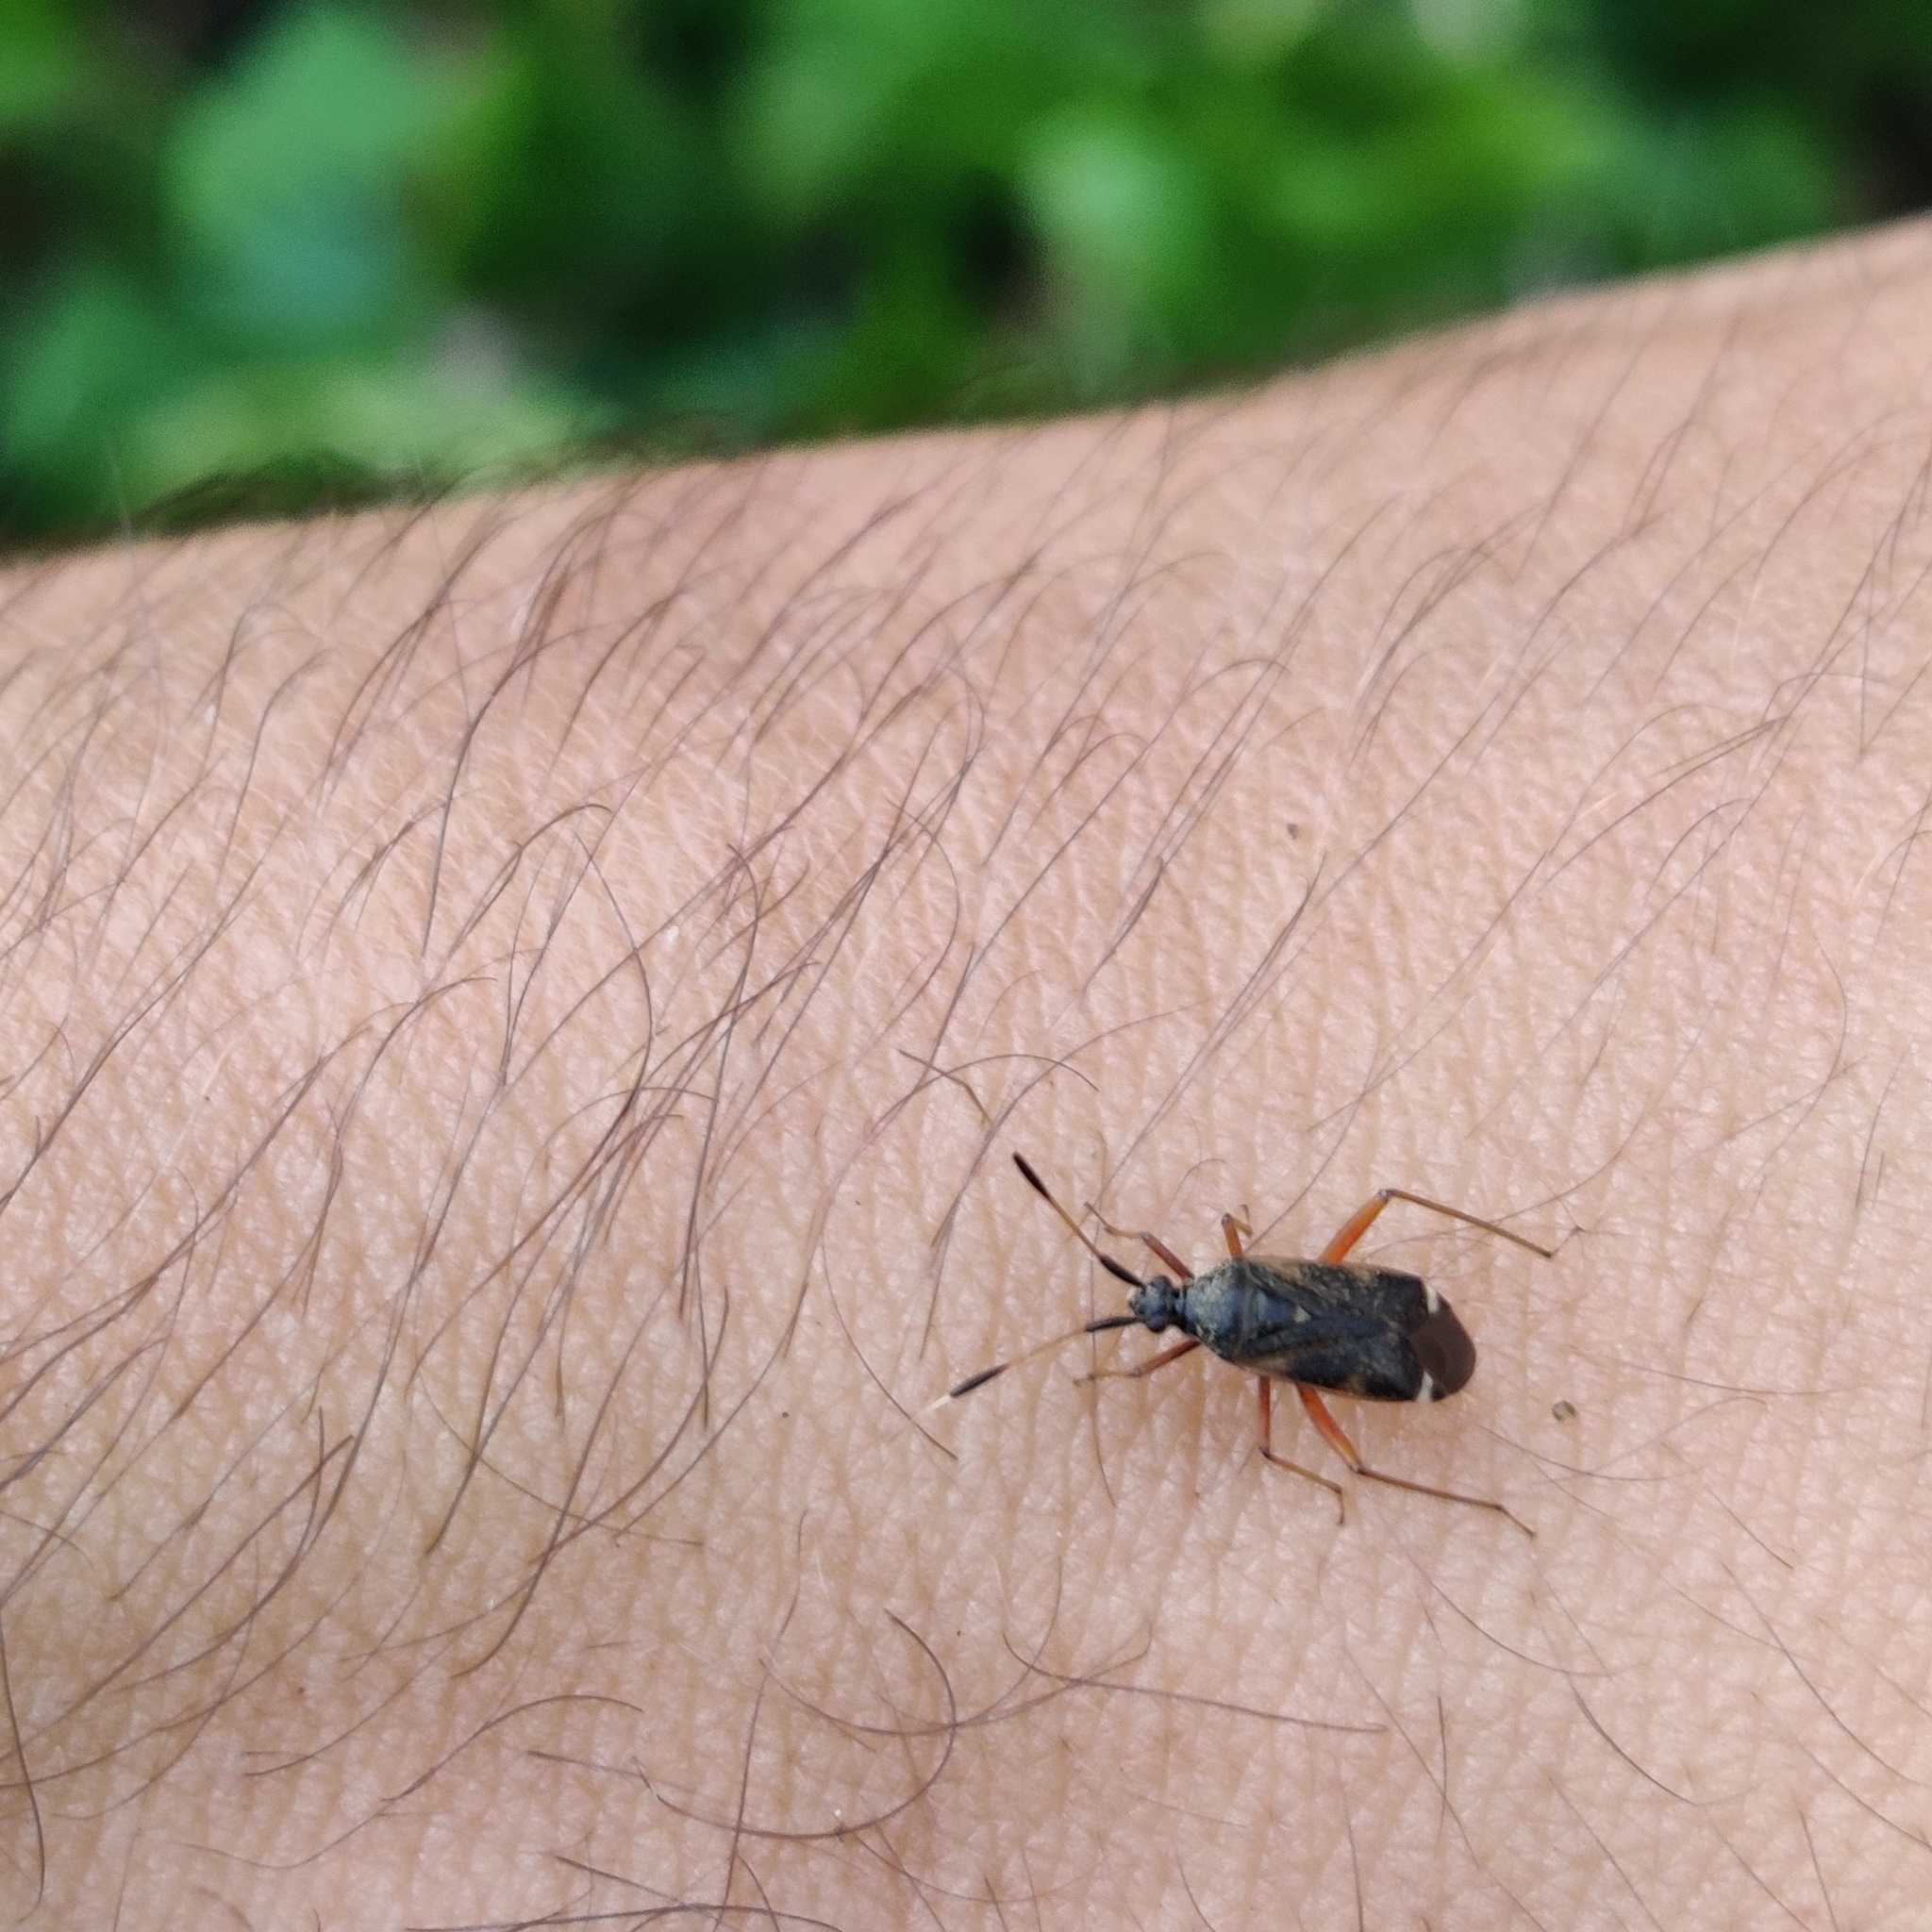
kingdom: Animalia
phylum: Arthropoda
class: Insecta
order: Hemiptera
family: Miridae
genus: Closterotomus
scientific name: Closterotomus biclavatus
